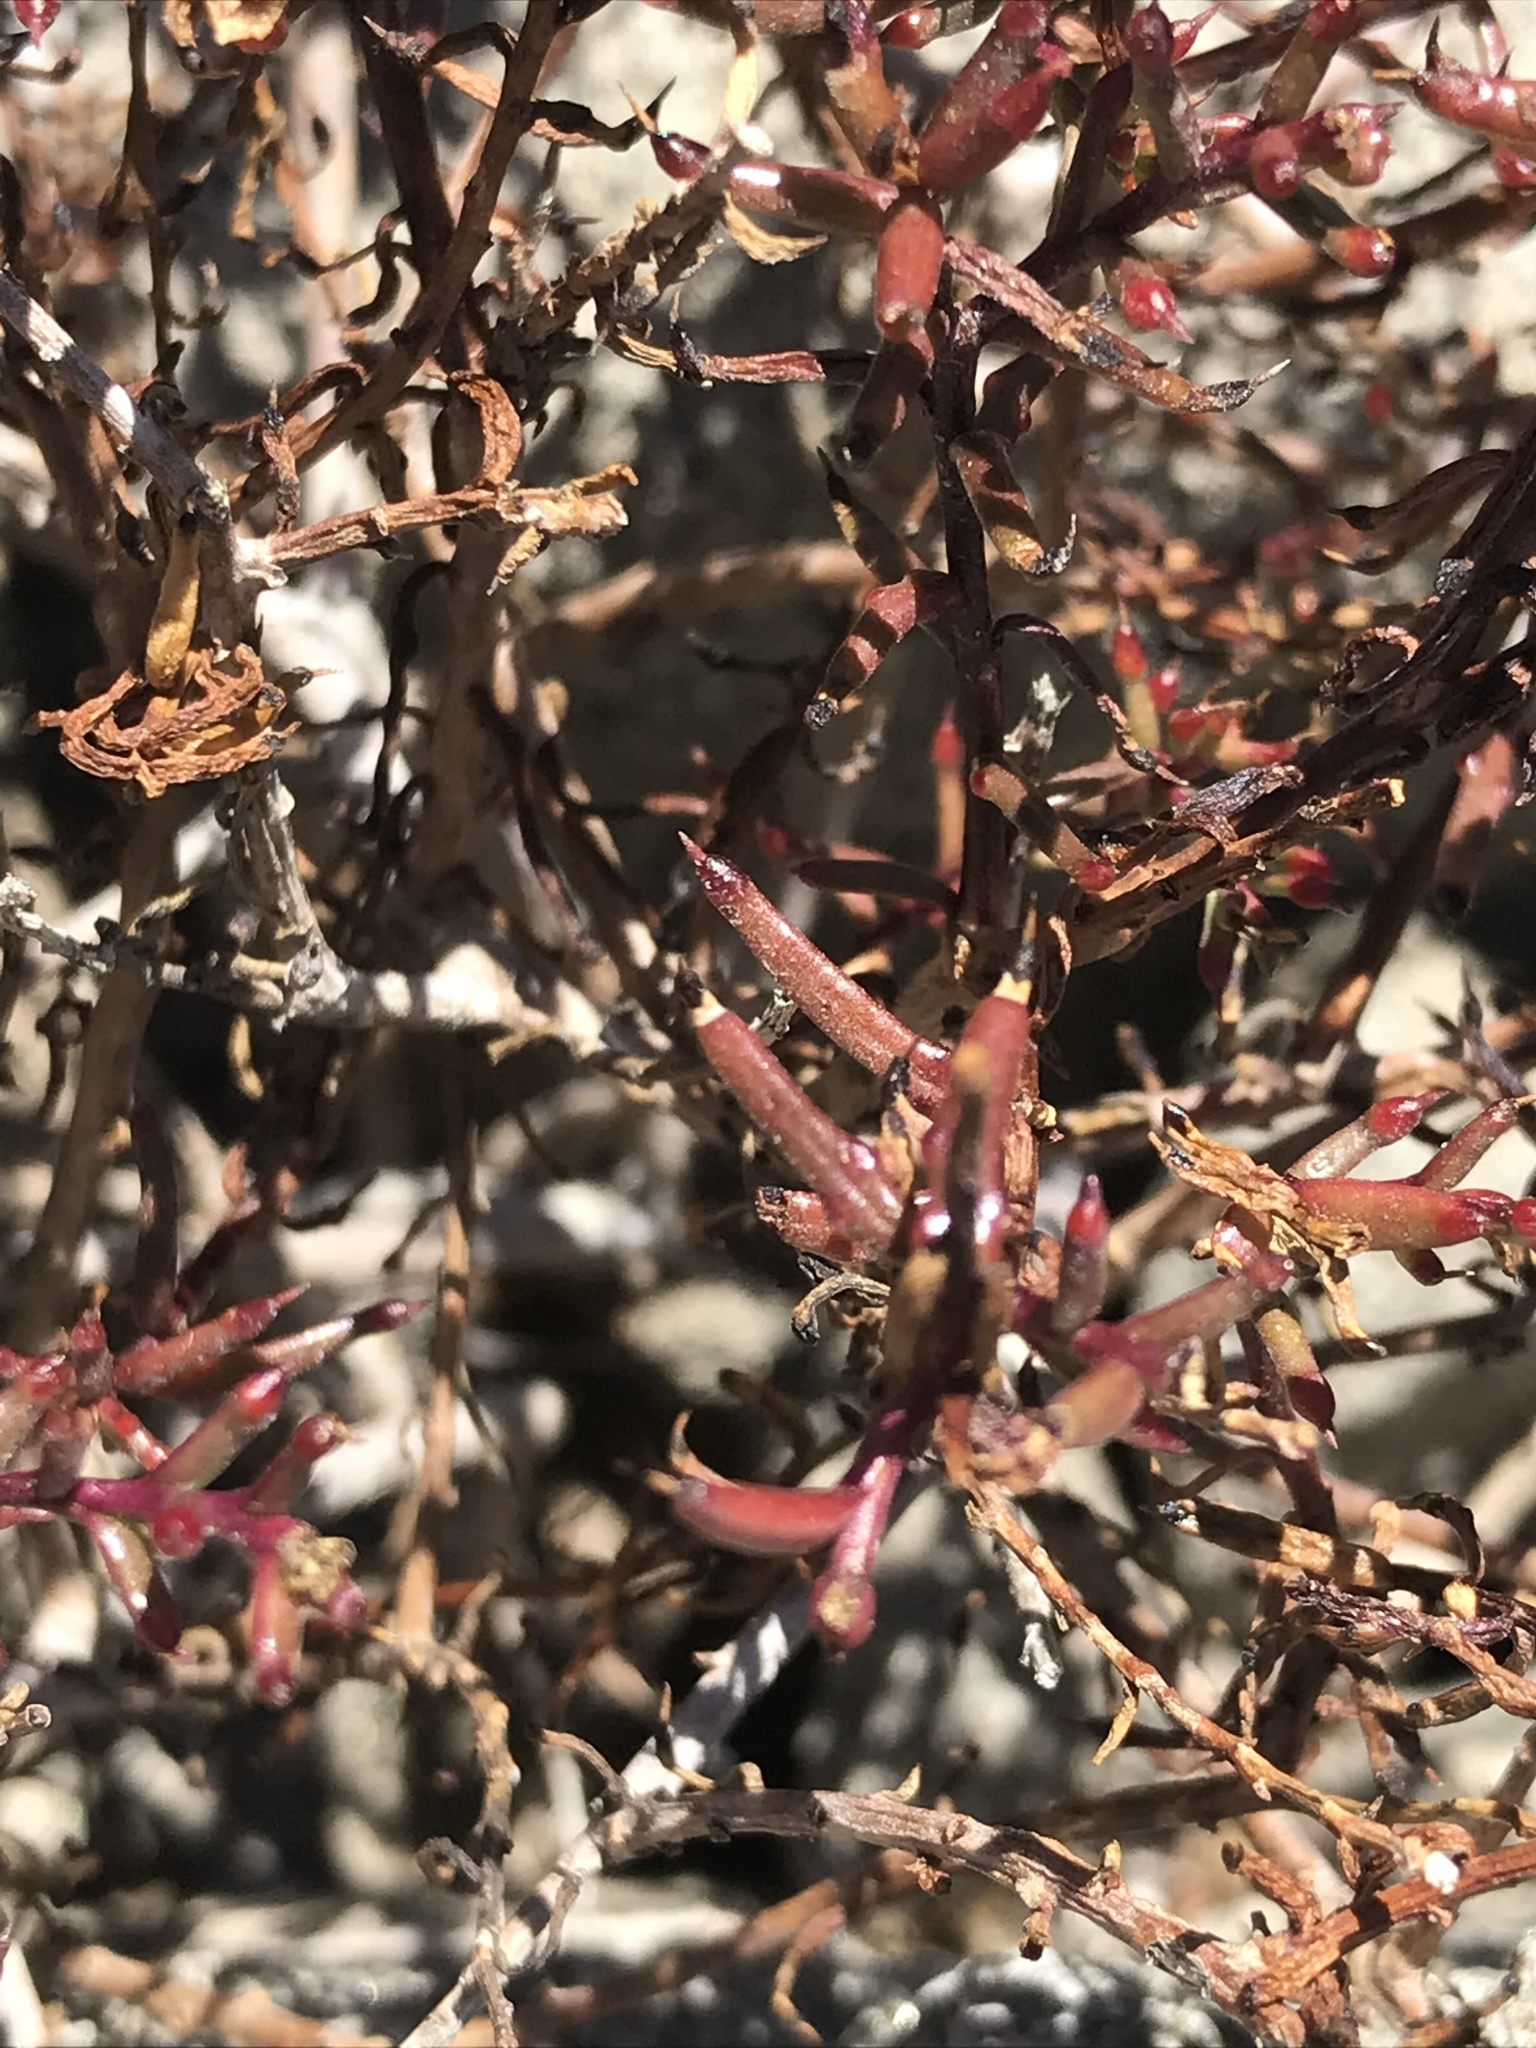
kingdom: Plantae
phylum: Tracheophyta
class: Magnoliopsida
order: Asterales
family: Asteraceae
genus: Bajacalia
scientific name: Bajacalia crassifolia
